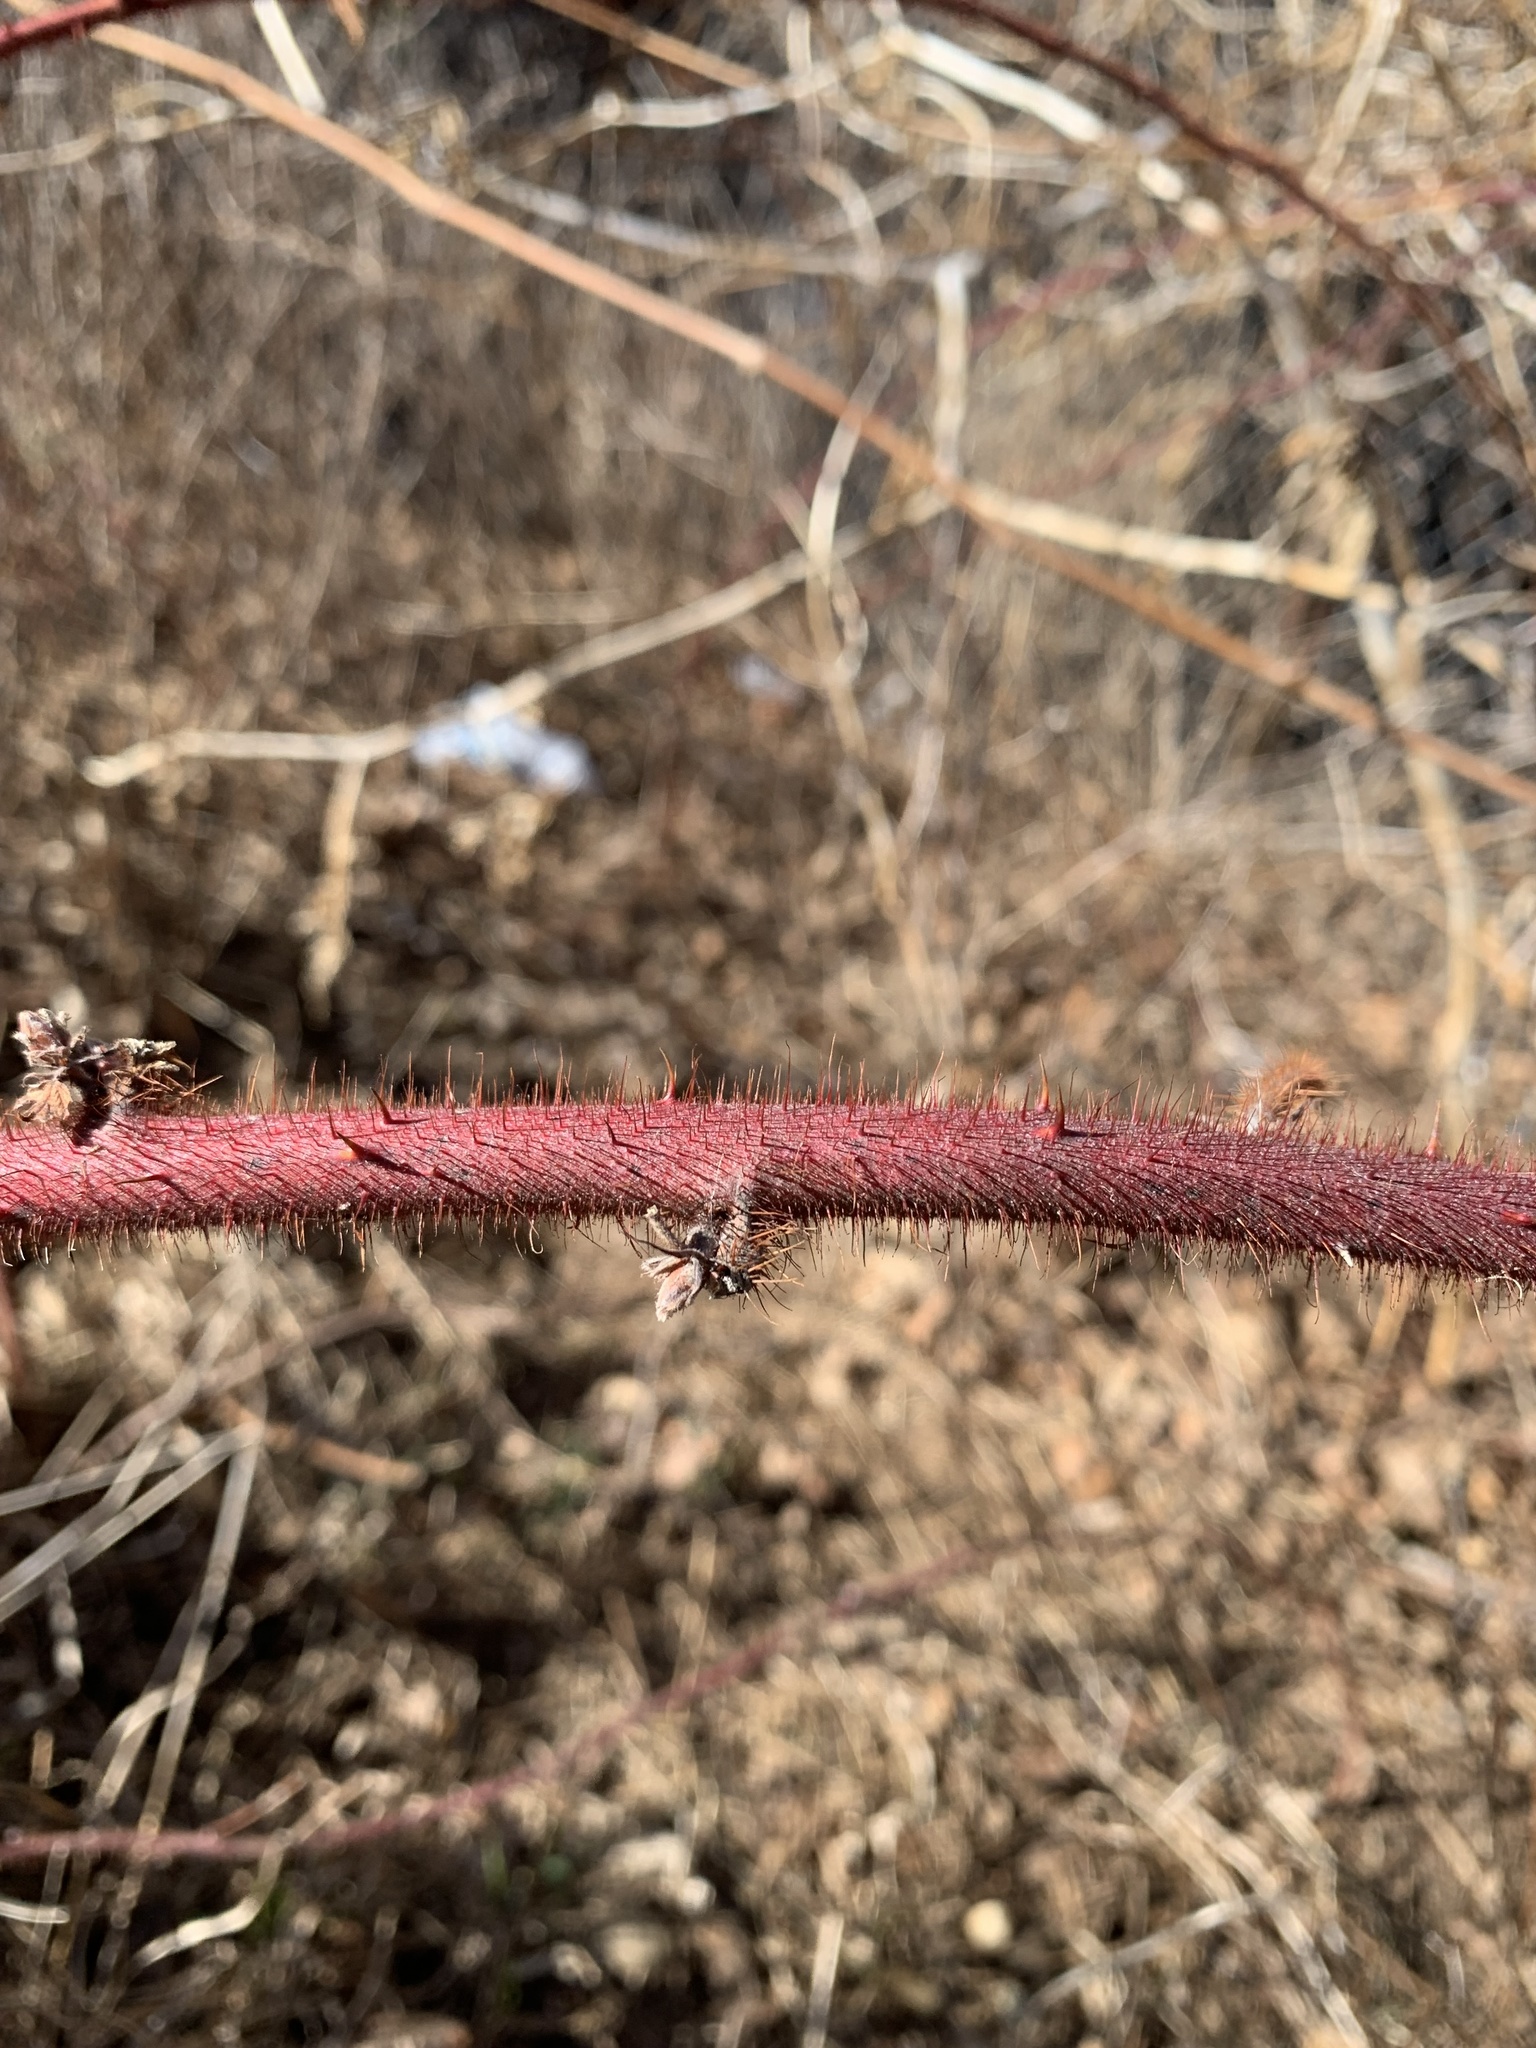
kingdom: Plantae
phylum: Tracheophyta
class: Magnoliopsida
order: Rosales
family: Rosaceae
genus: Rubus
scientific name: Rubus phoenicolasius
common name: Japanese wineberry
